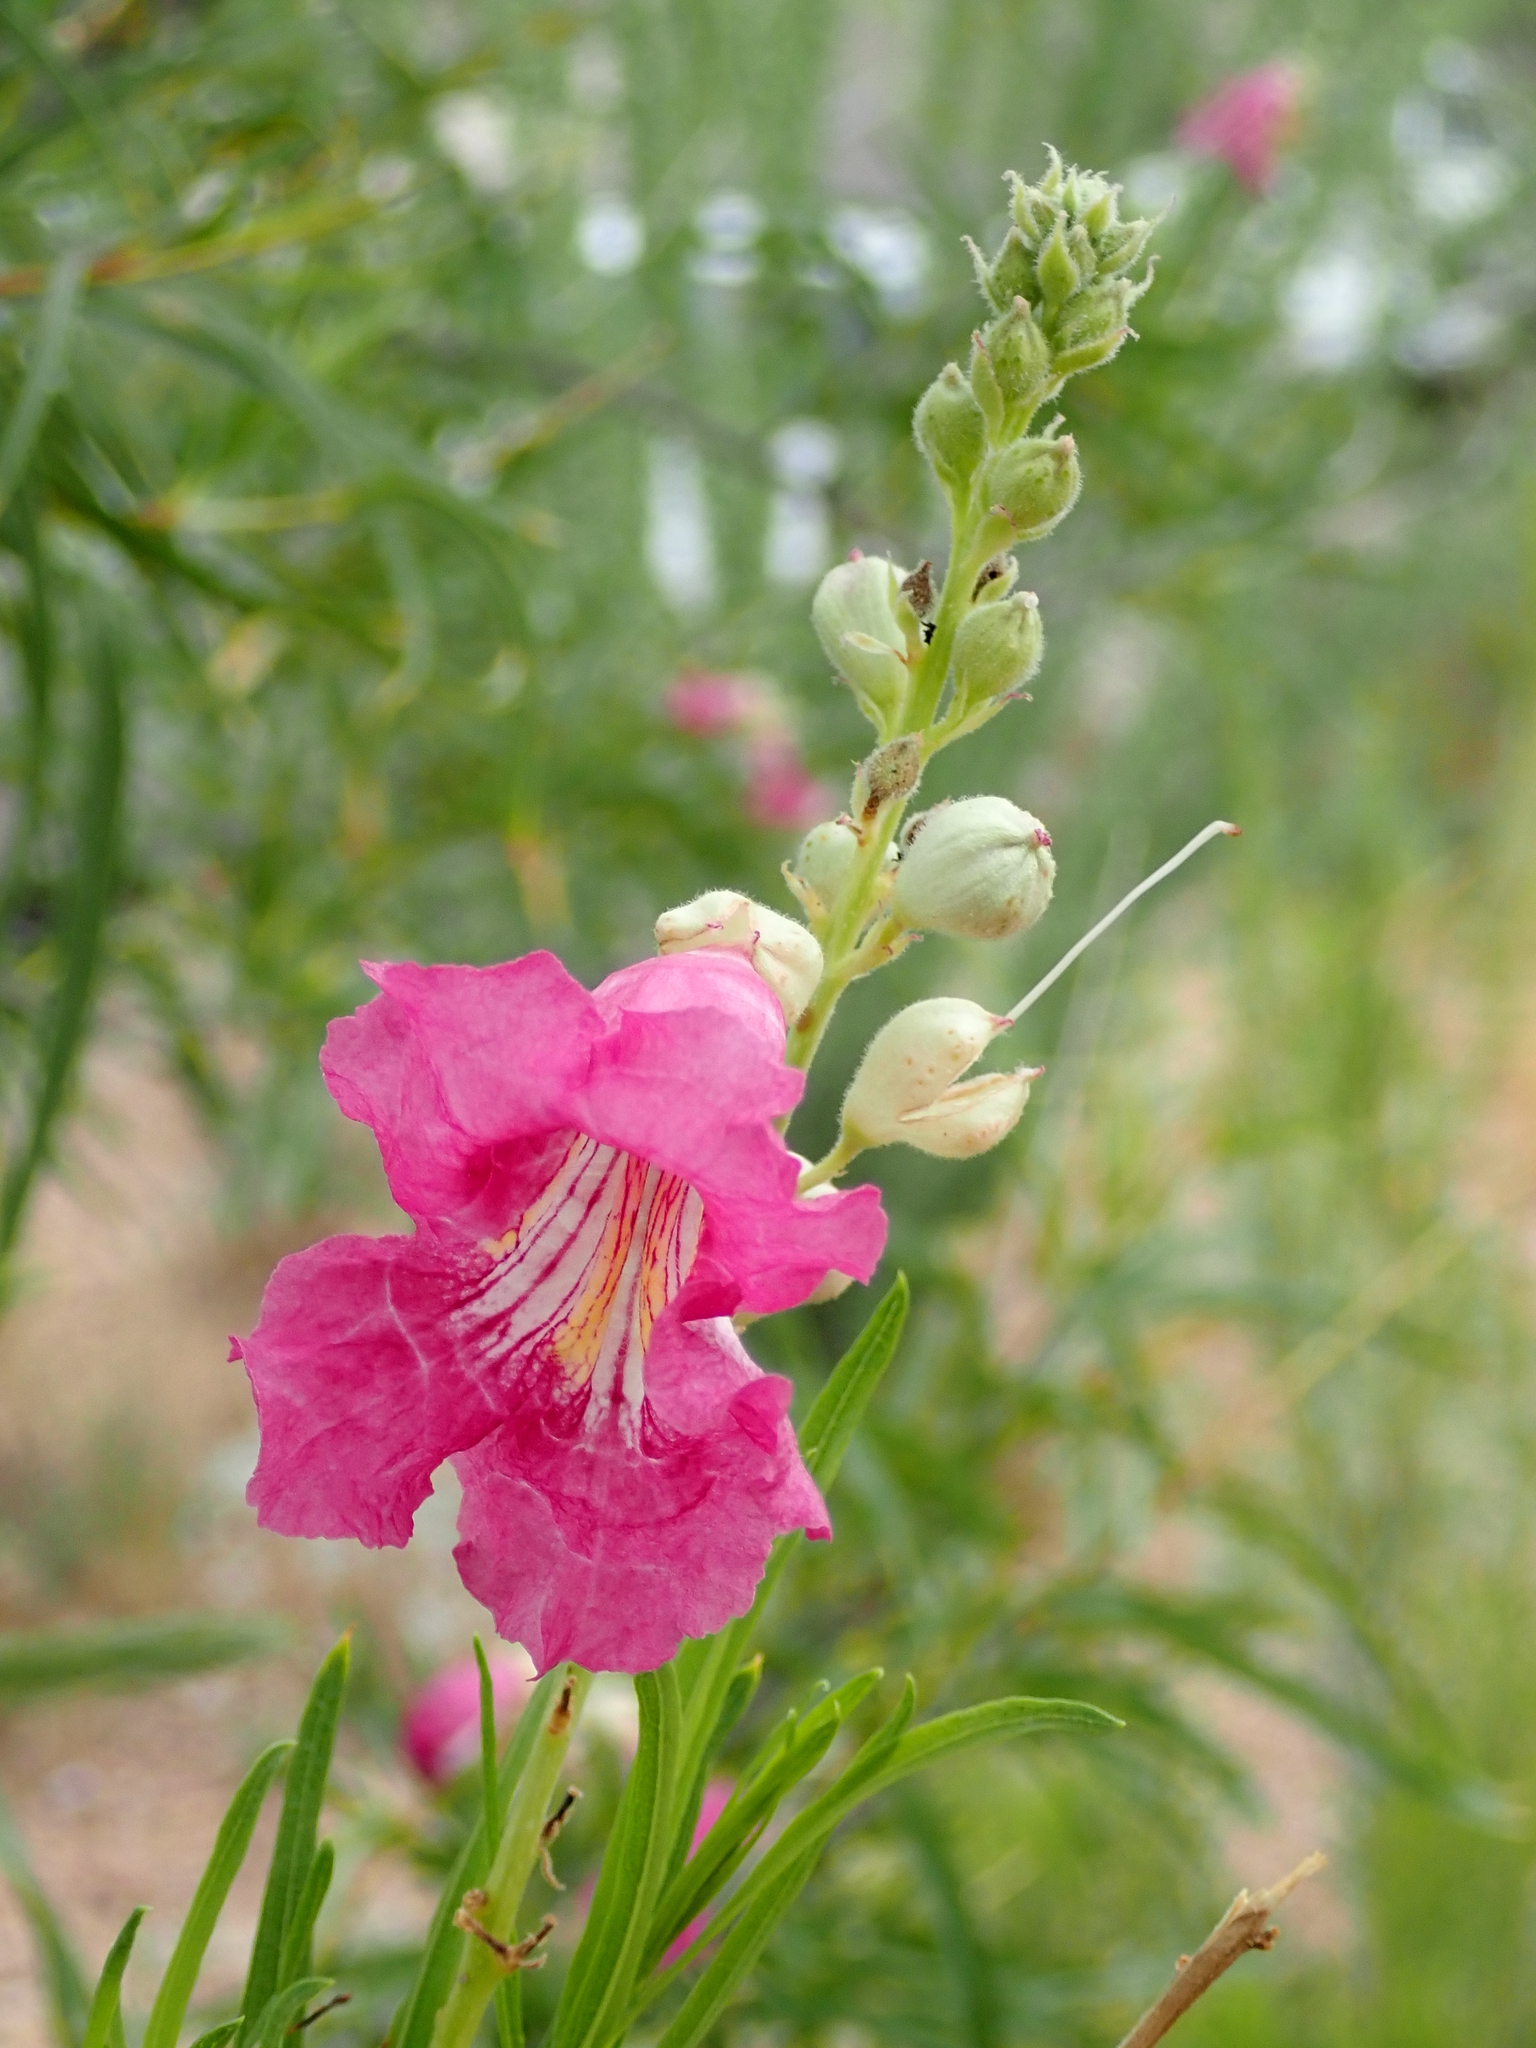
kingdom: Plantae
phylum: Tracheophyta
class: Magnoliopsida
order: Lamiales
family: Bignoniaceae
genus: Chilopsis
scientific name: Chilopsis linearis
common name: Desert-willow
